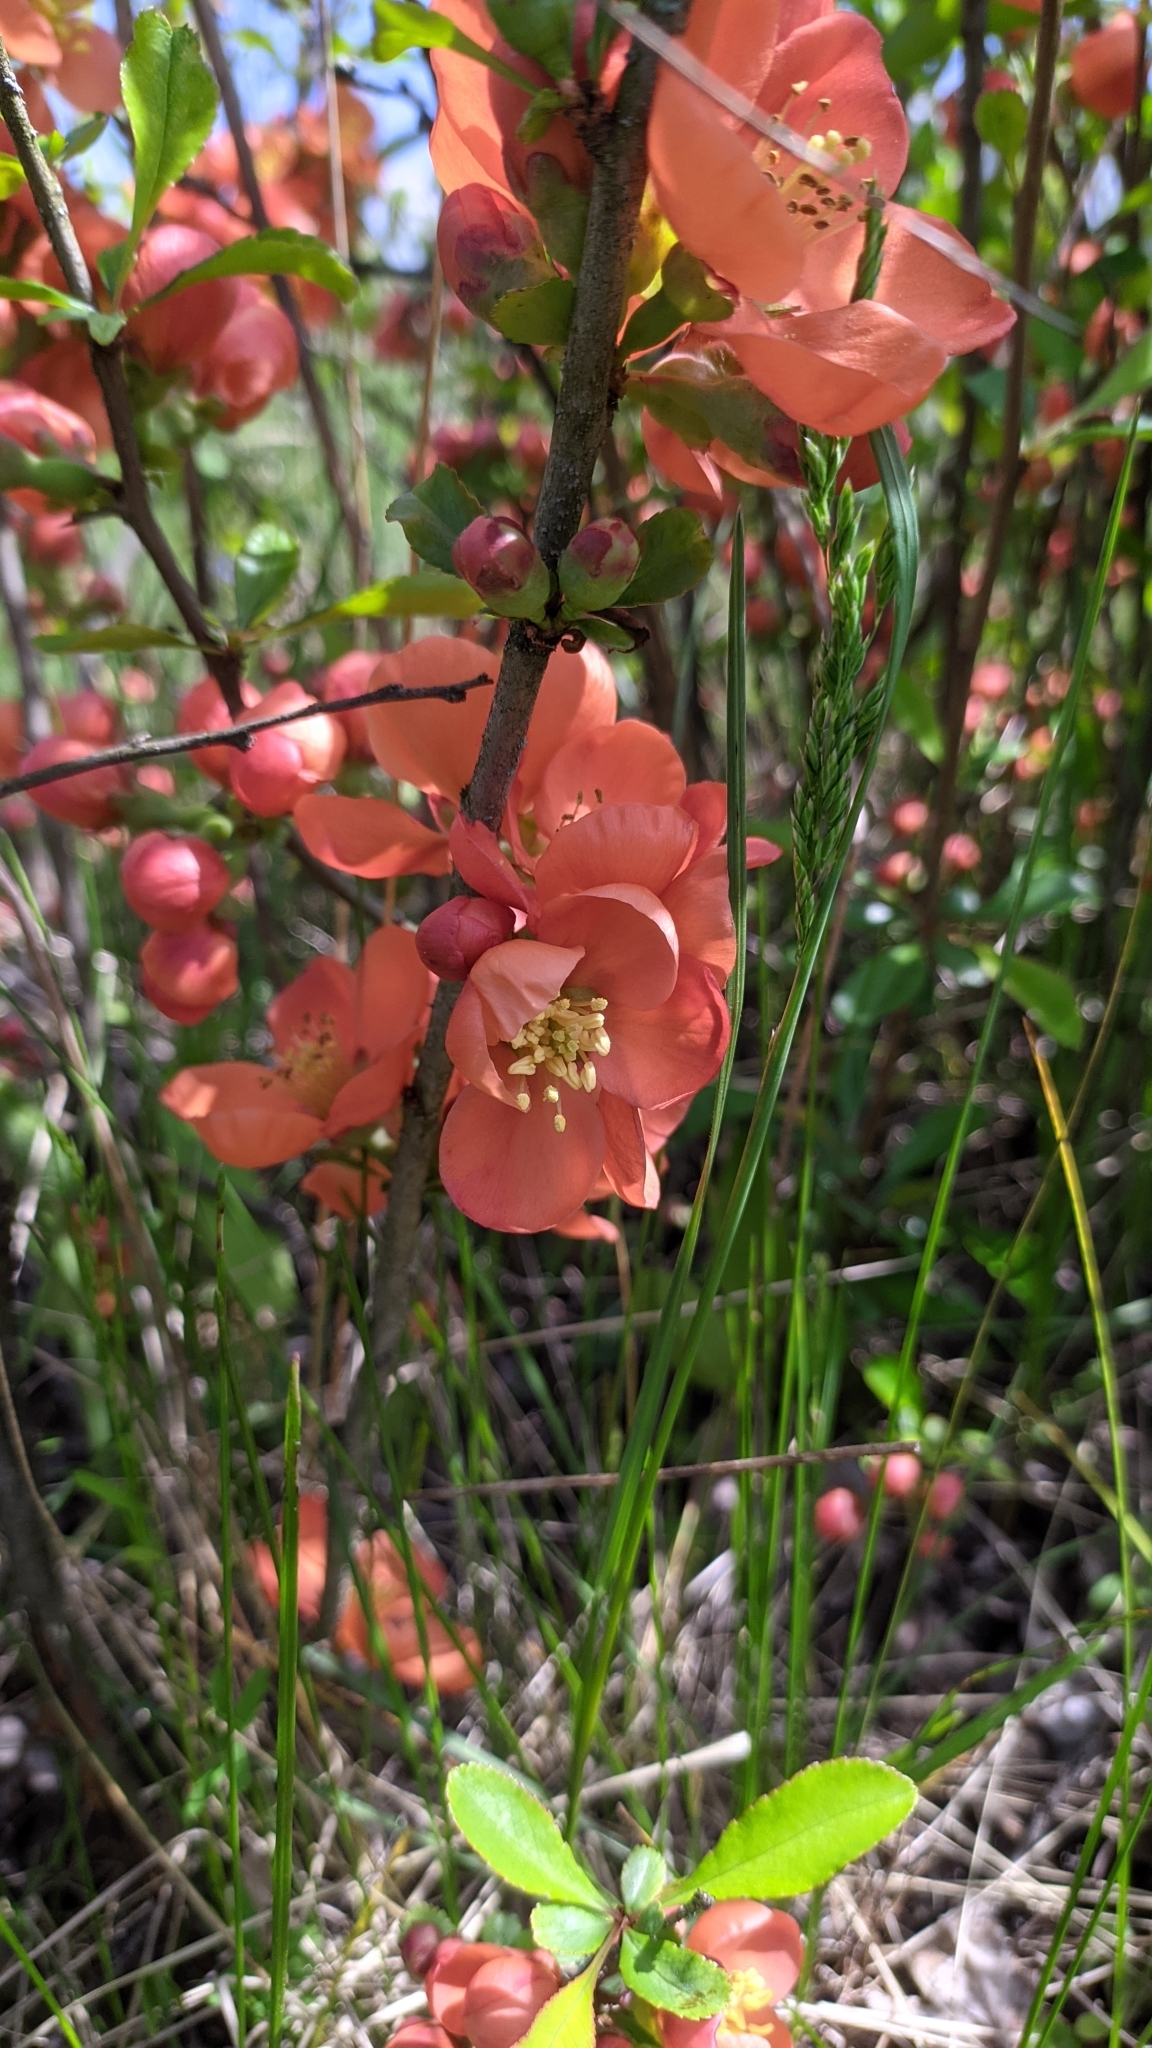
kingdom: Plantae
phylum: Tracheophyta
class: Magnoliopsida
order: Rosales
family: Rosaceae
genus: Chaenomeles
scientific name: Chaenomeles japonica
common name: Japanese quince
